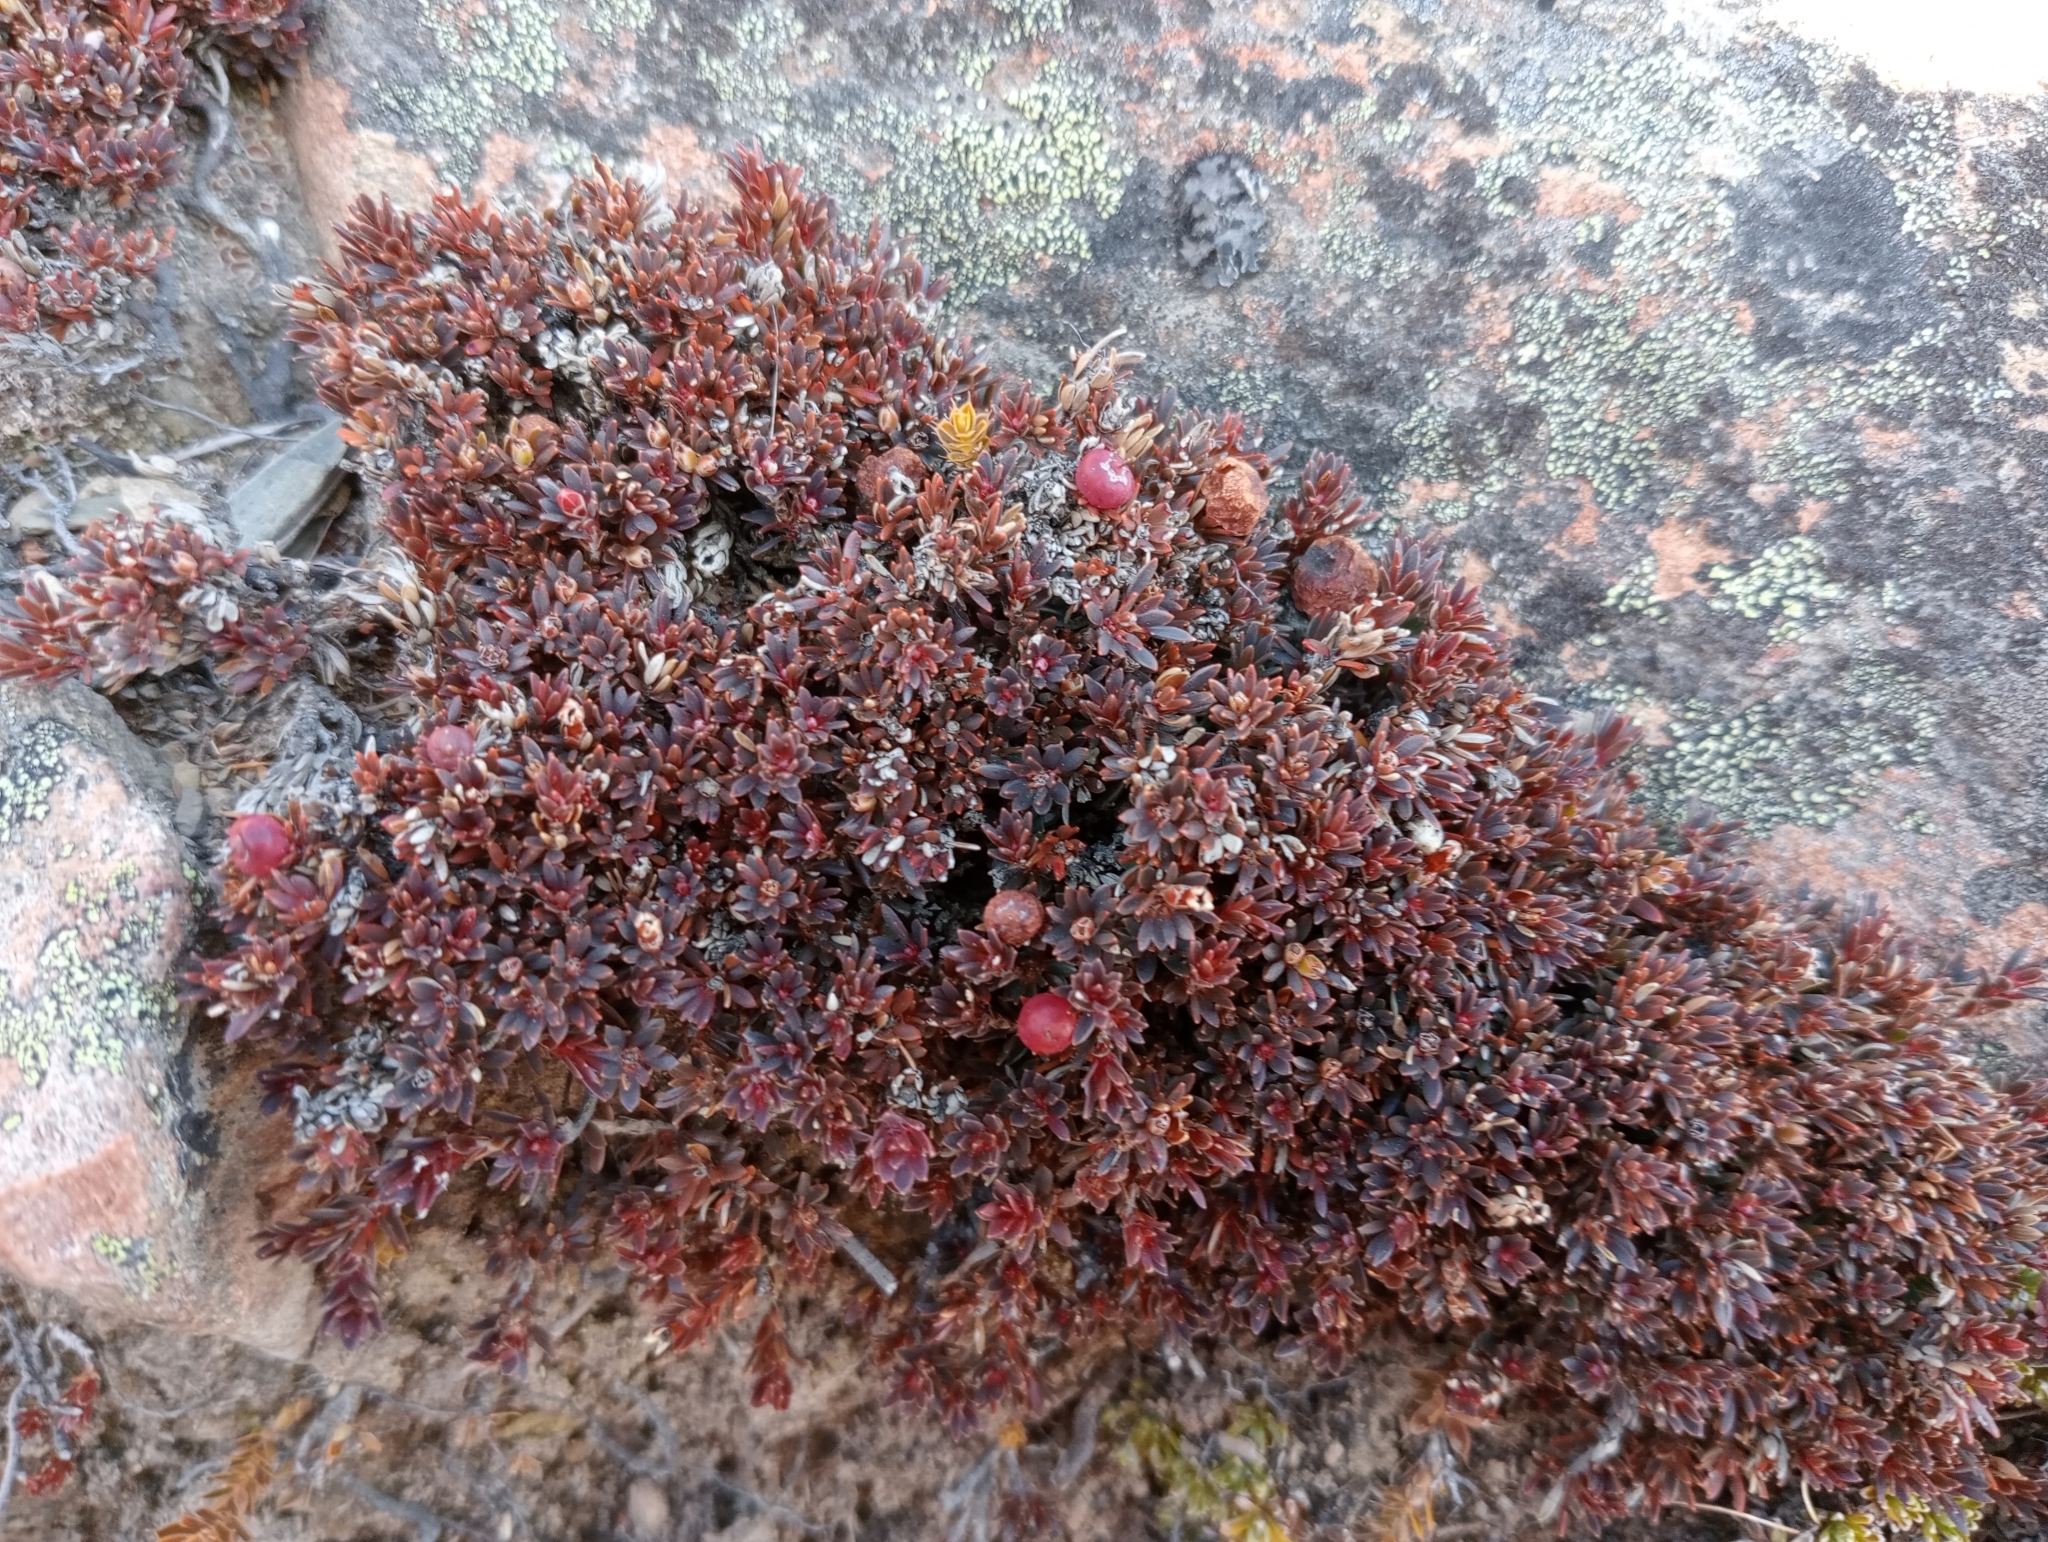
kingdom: Plantae
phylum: Tracheophyta
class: Magnoliopsida
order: Ericales
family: Ericaceae
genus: Pentachondra
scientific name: Pentachondra pumila
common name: Carpet-heath
